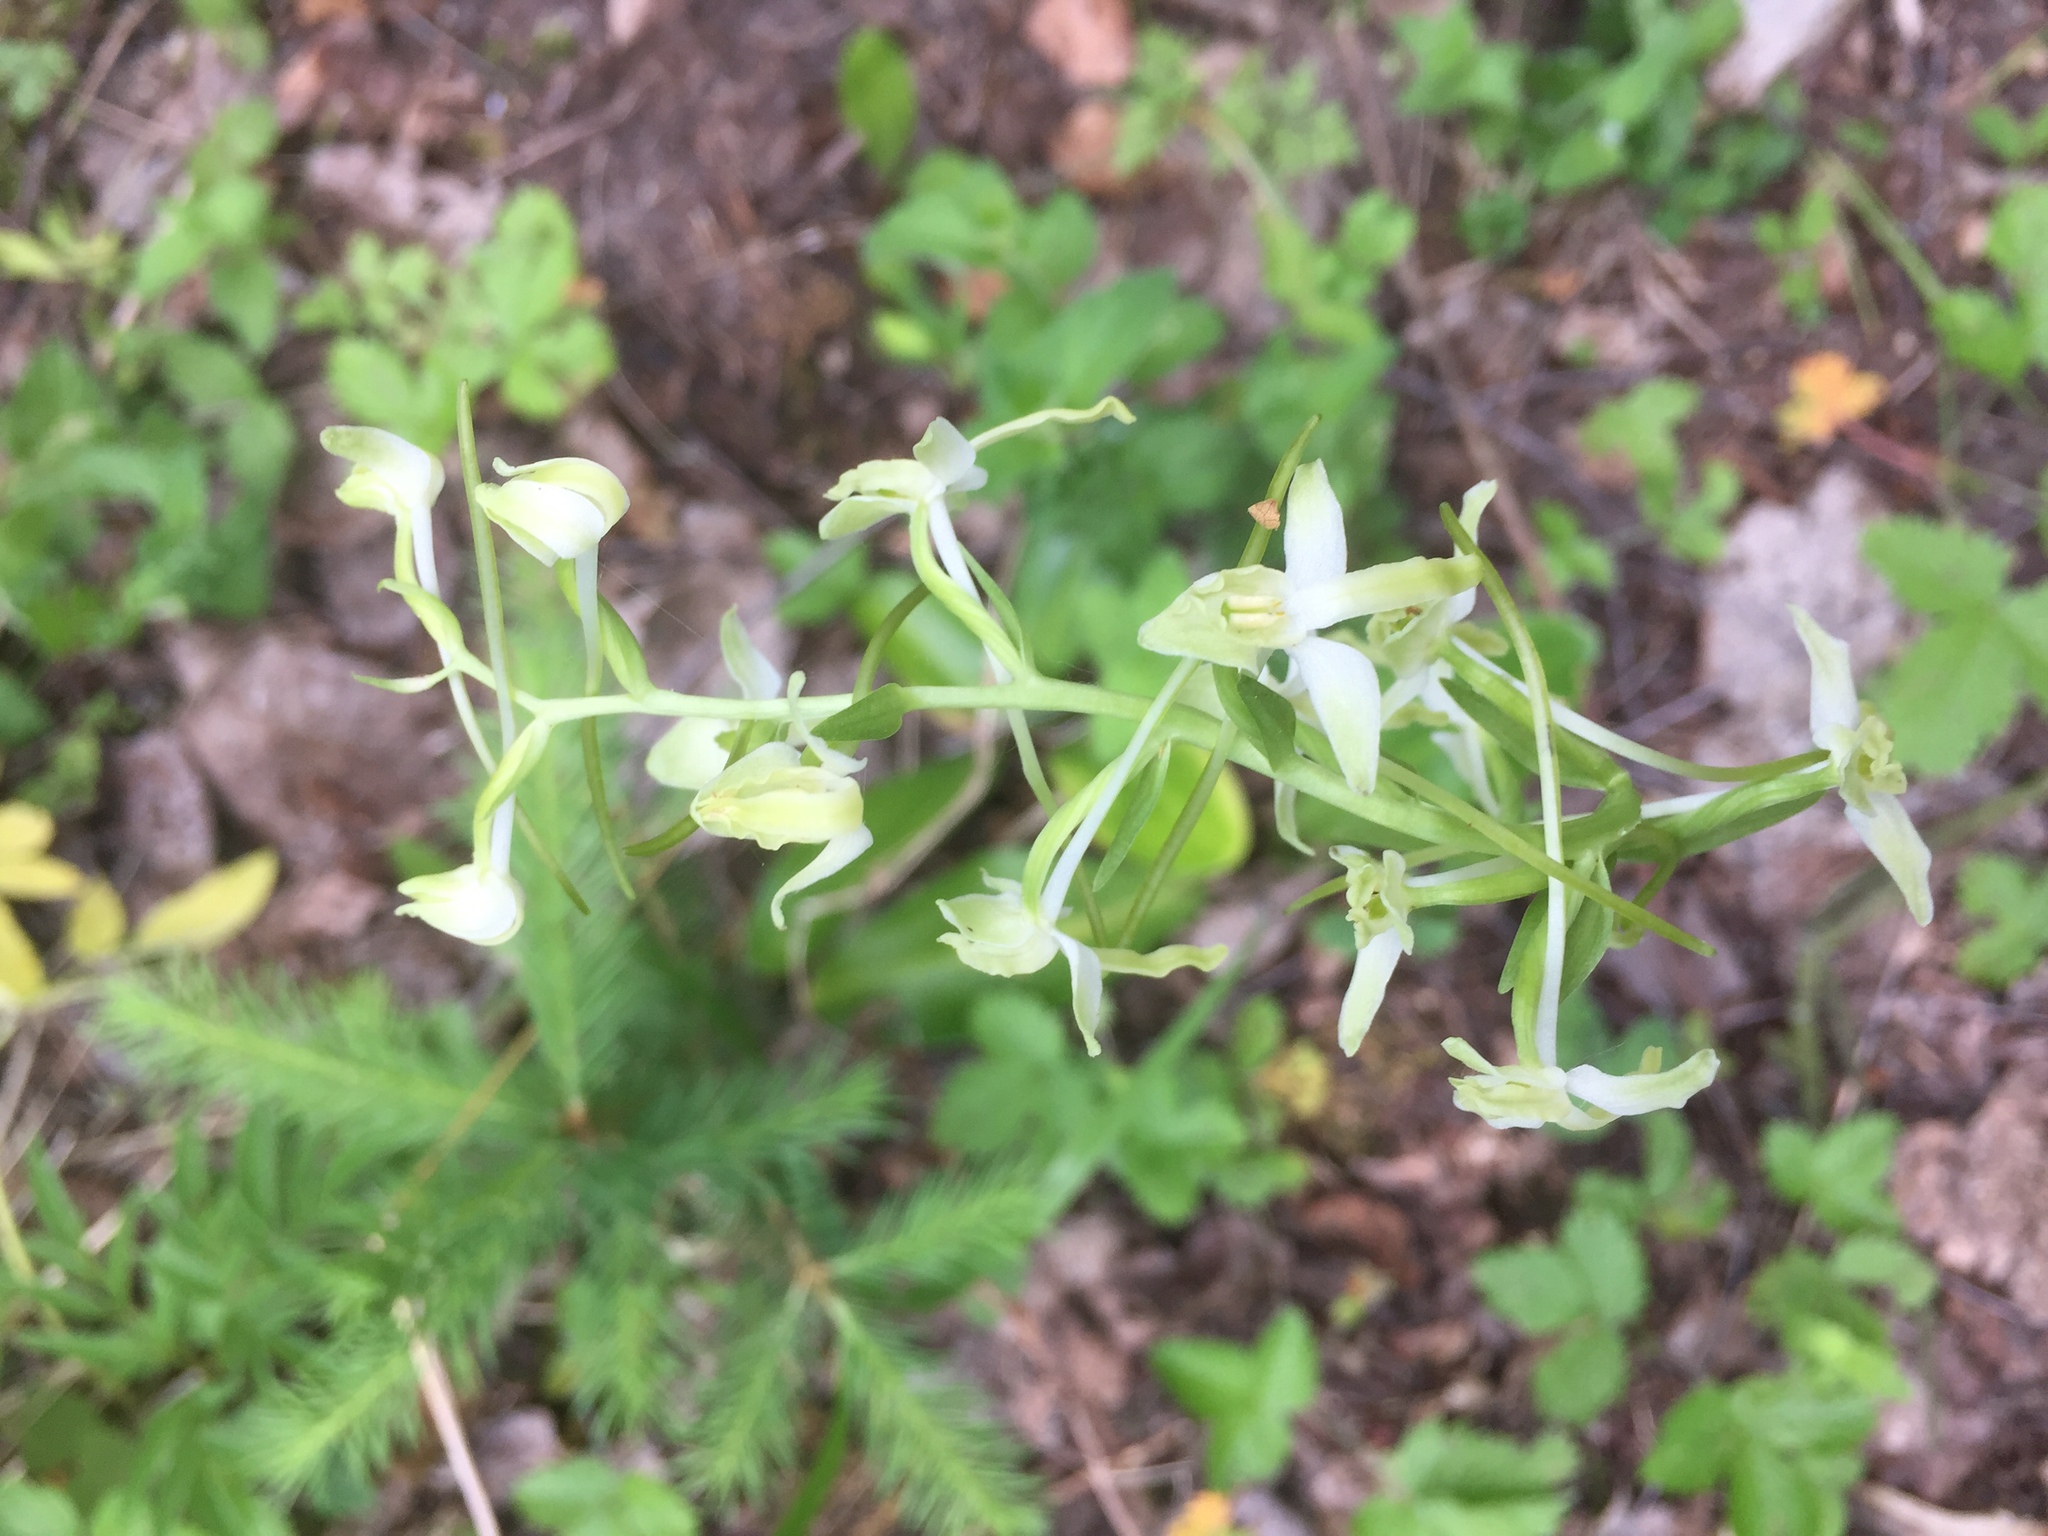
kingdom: Plantae
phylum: Tracheophyta
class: Liliopsida
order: Asparagales
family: Orchidaceae
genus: Platanthera
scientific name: Platanthera bifolia
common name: Lesser butterfly-orchid
